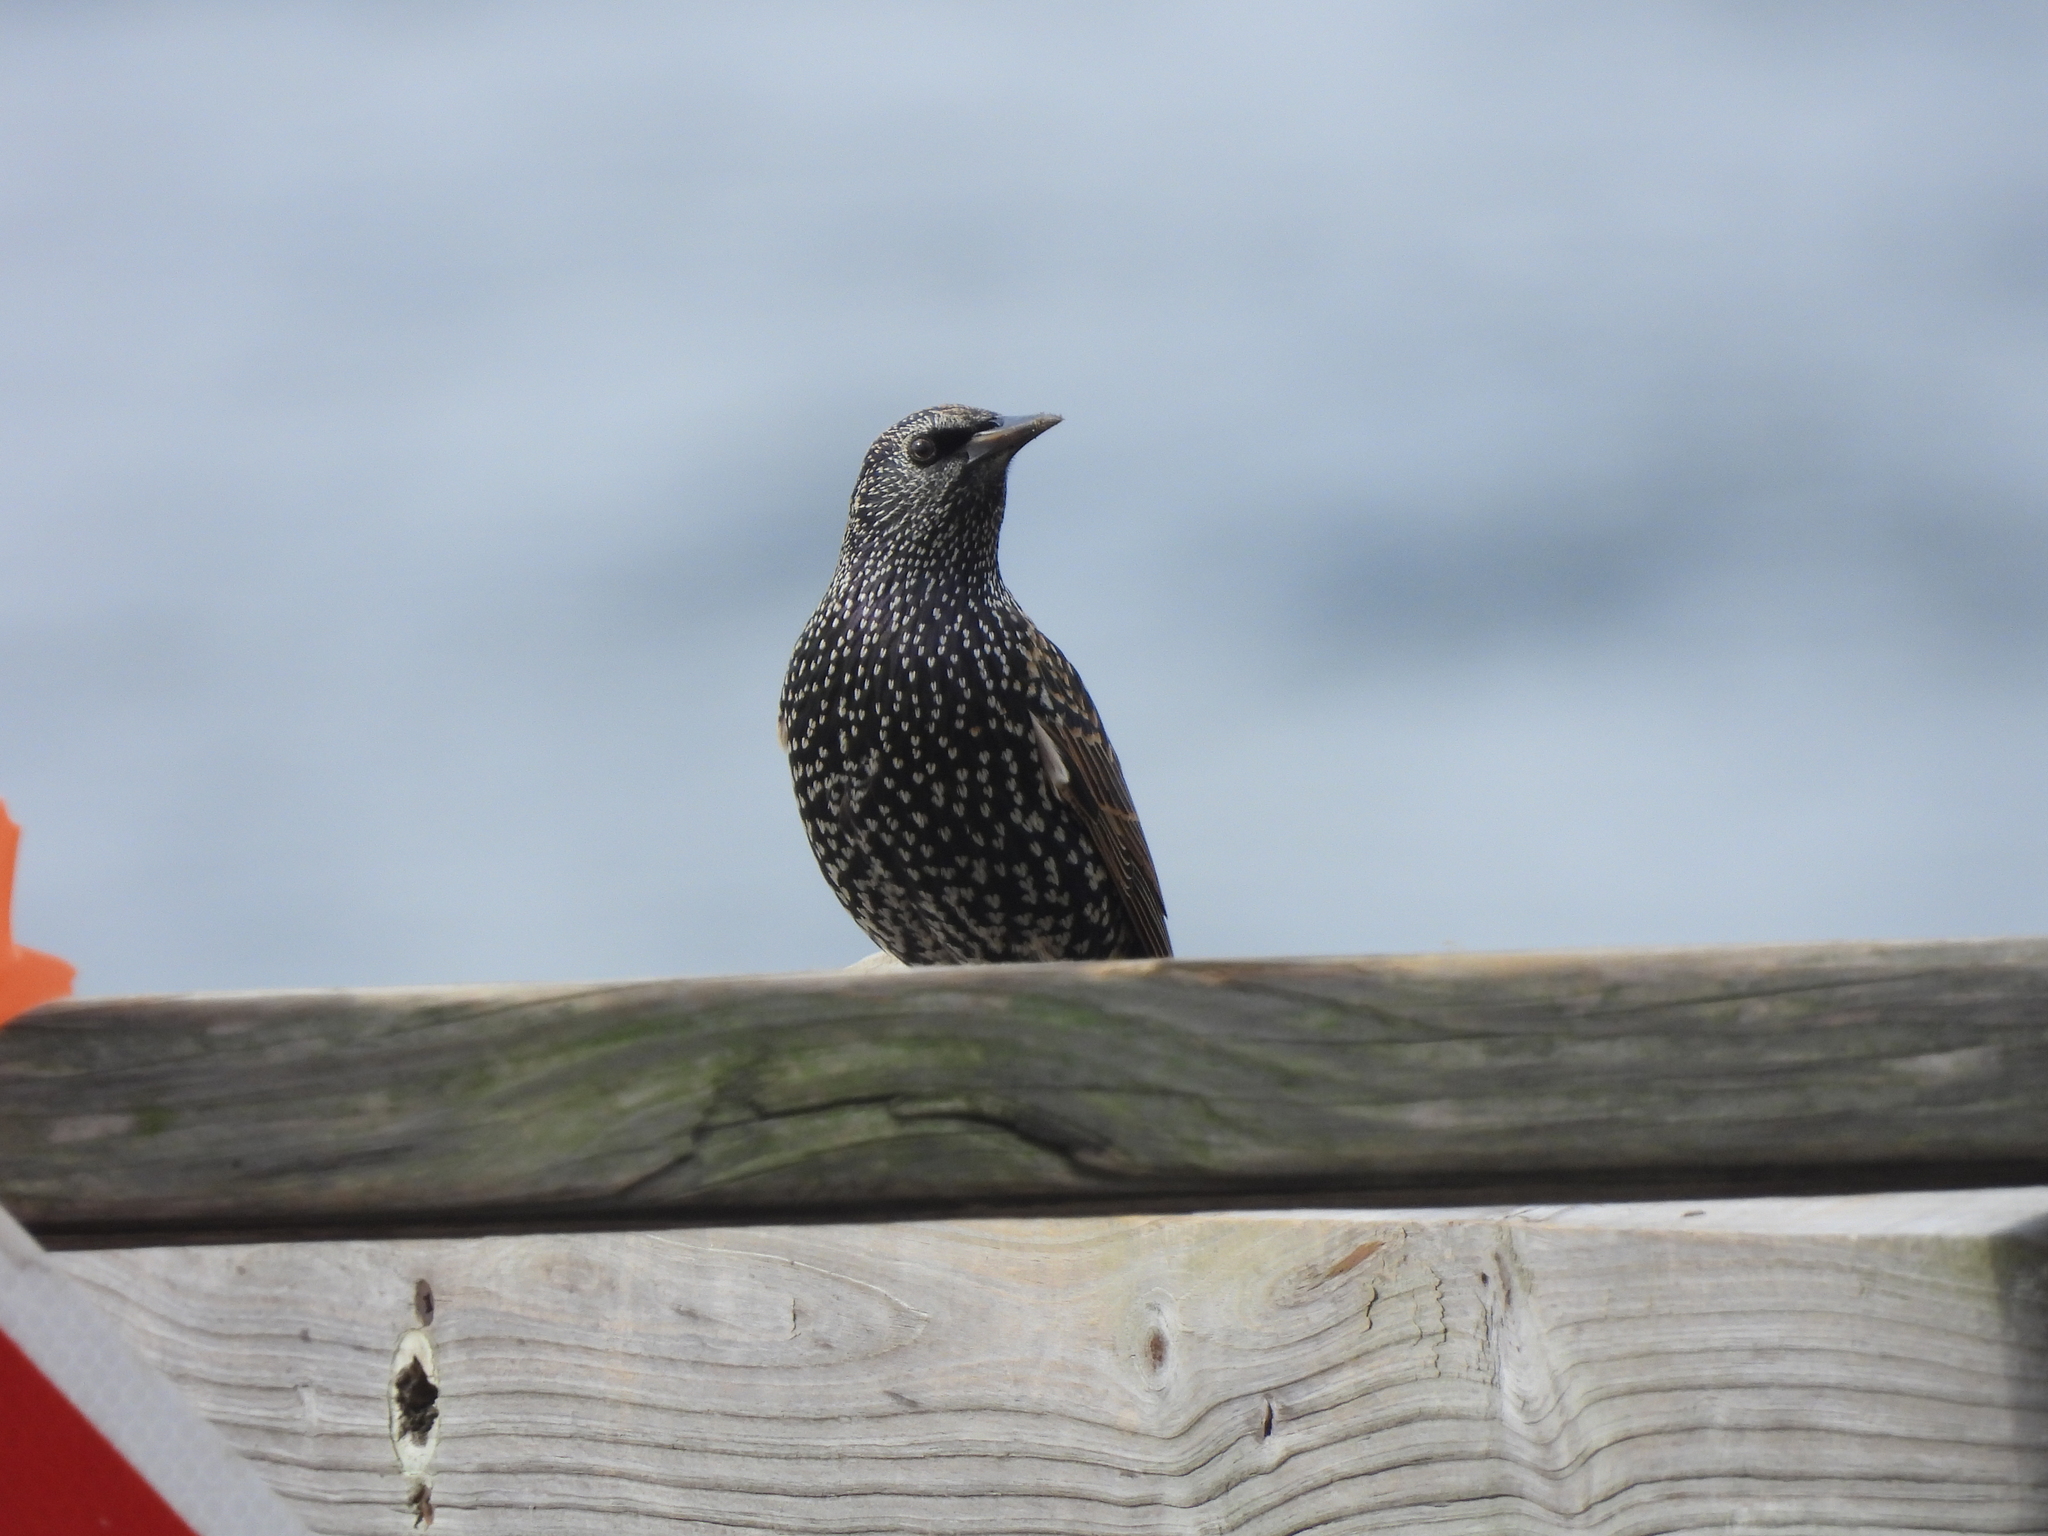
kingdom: Animalia
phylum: Chordata
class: Aves
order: Passeriformes
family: Sturnidae
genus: Sturnus
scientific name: Sturnus vulgaris
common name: Common starling
